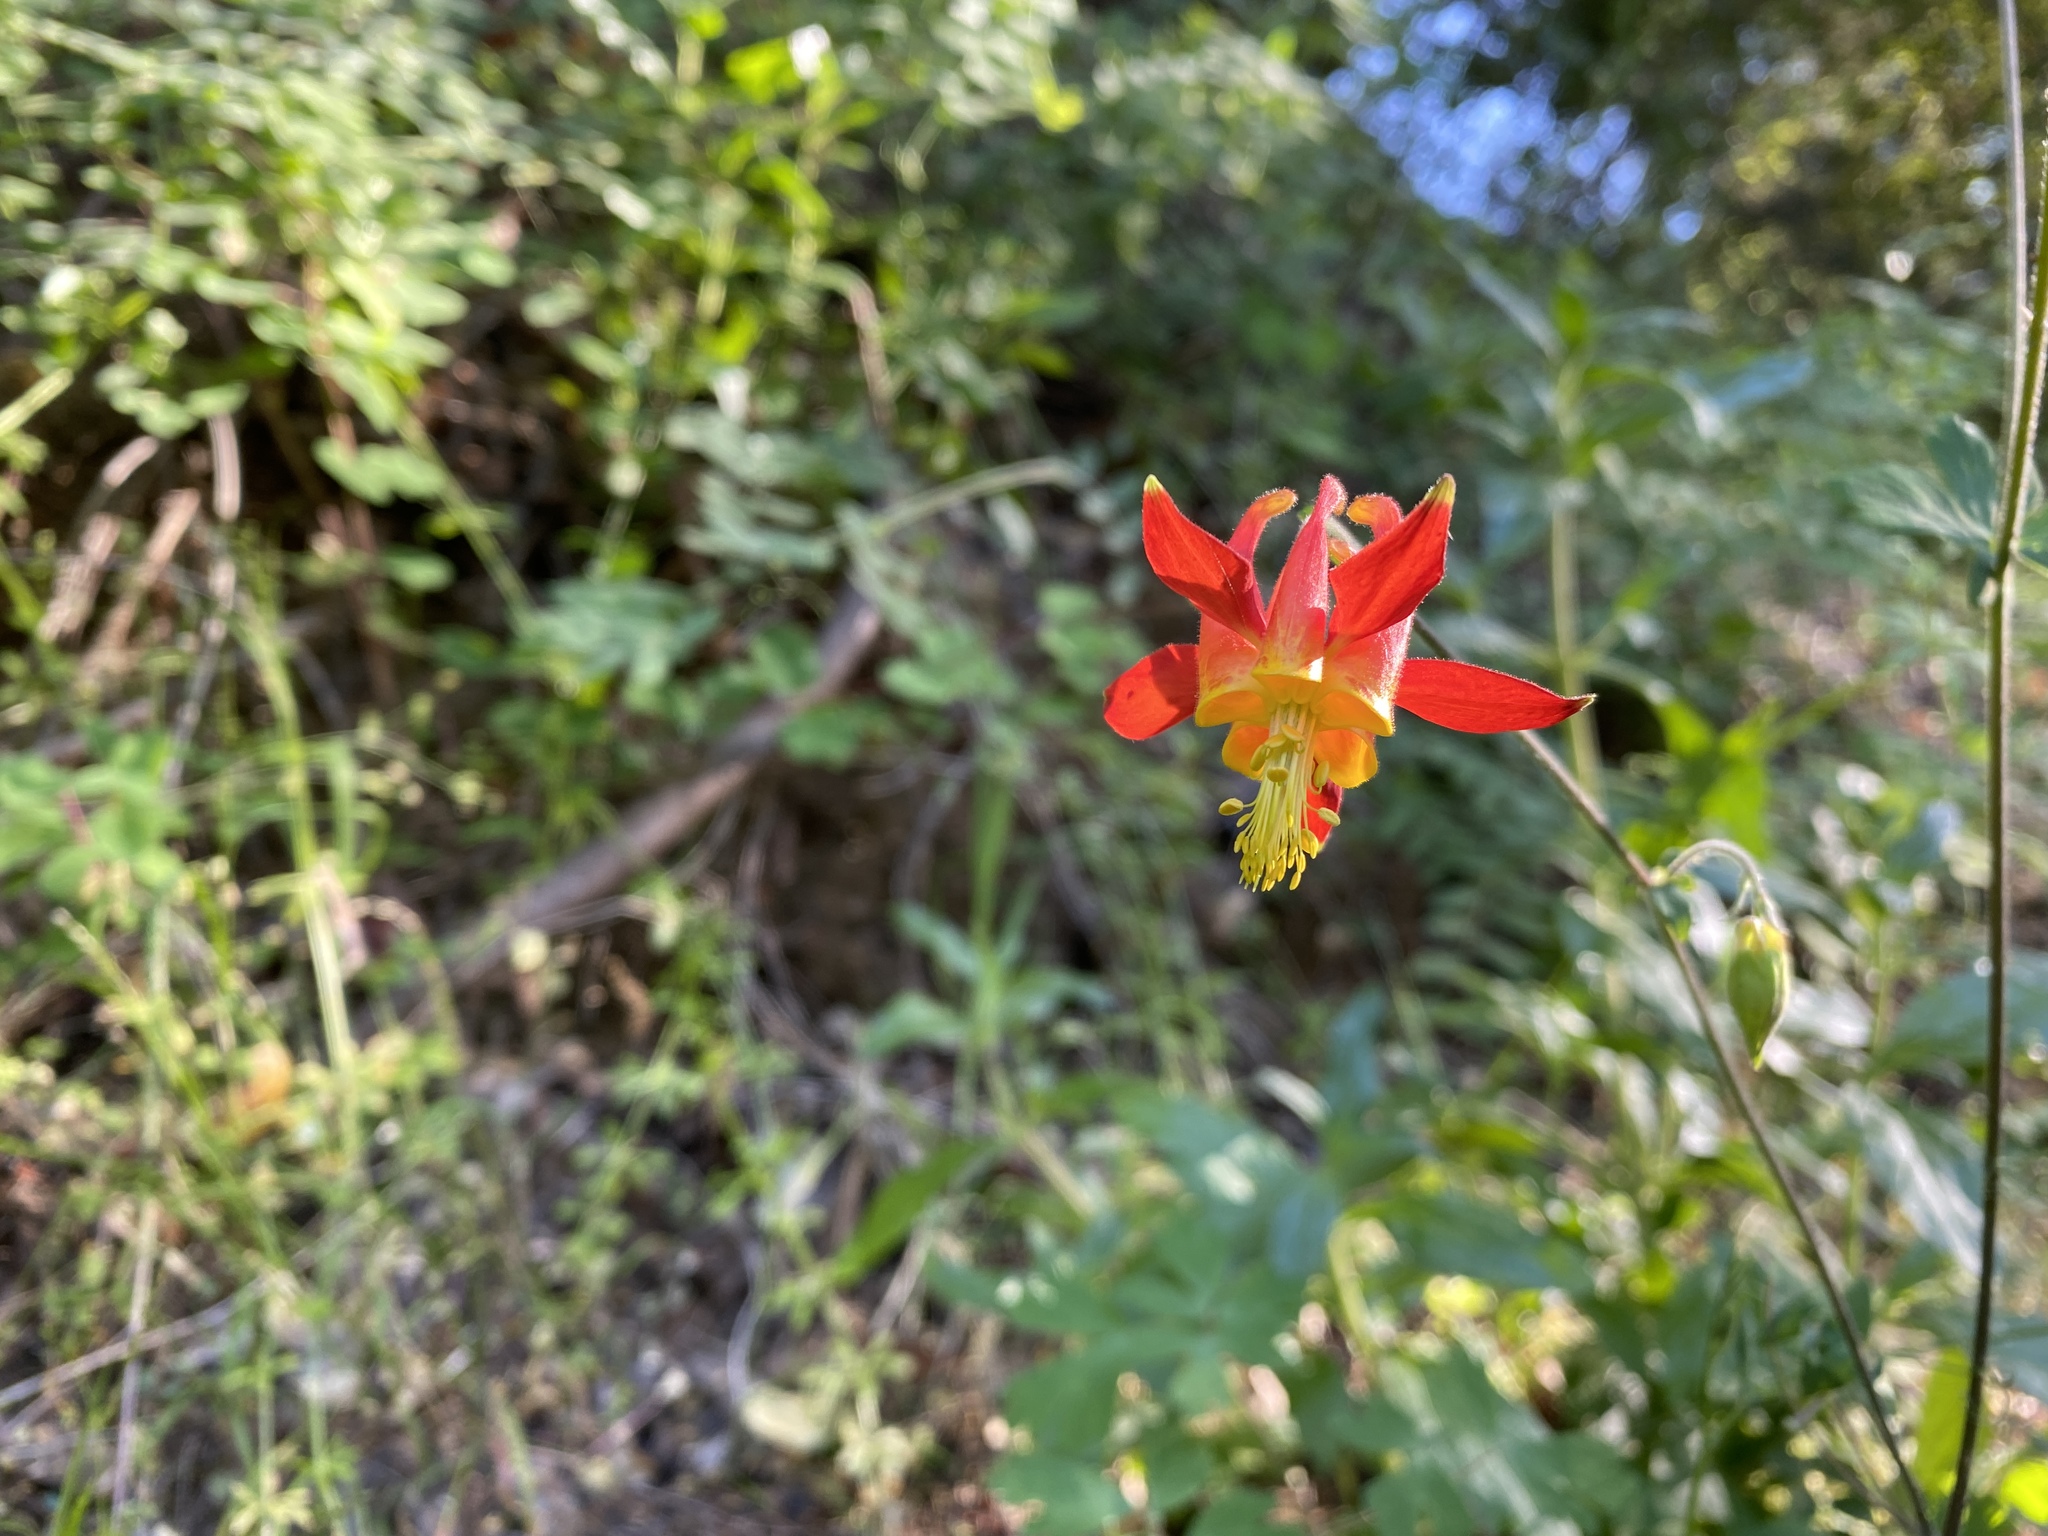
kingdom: Plantae
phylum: Tracheophyta
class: Magnoliopsida
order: Ranunculales
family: Ranunculaceae
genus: Aquilegia
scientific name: Aquilegia formosa
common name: Sitka columbine
